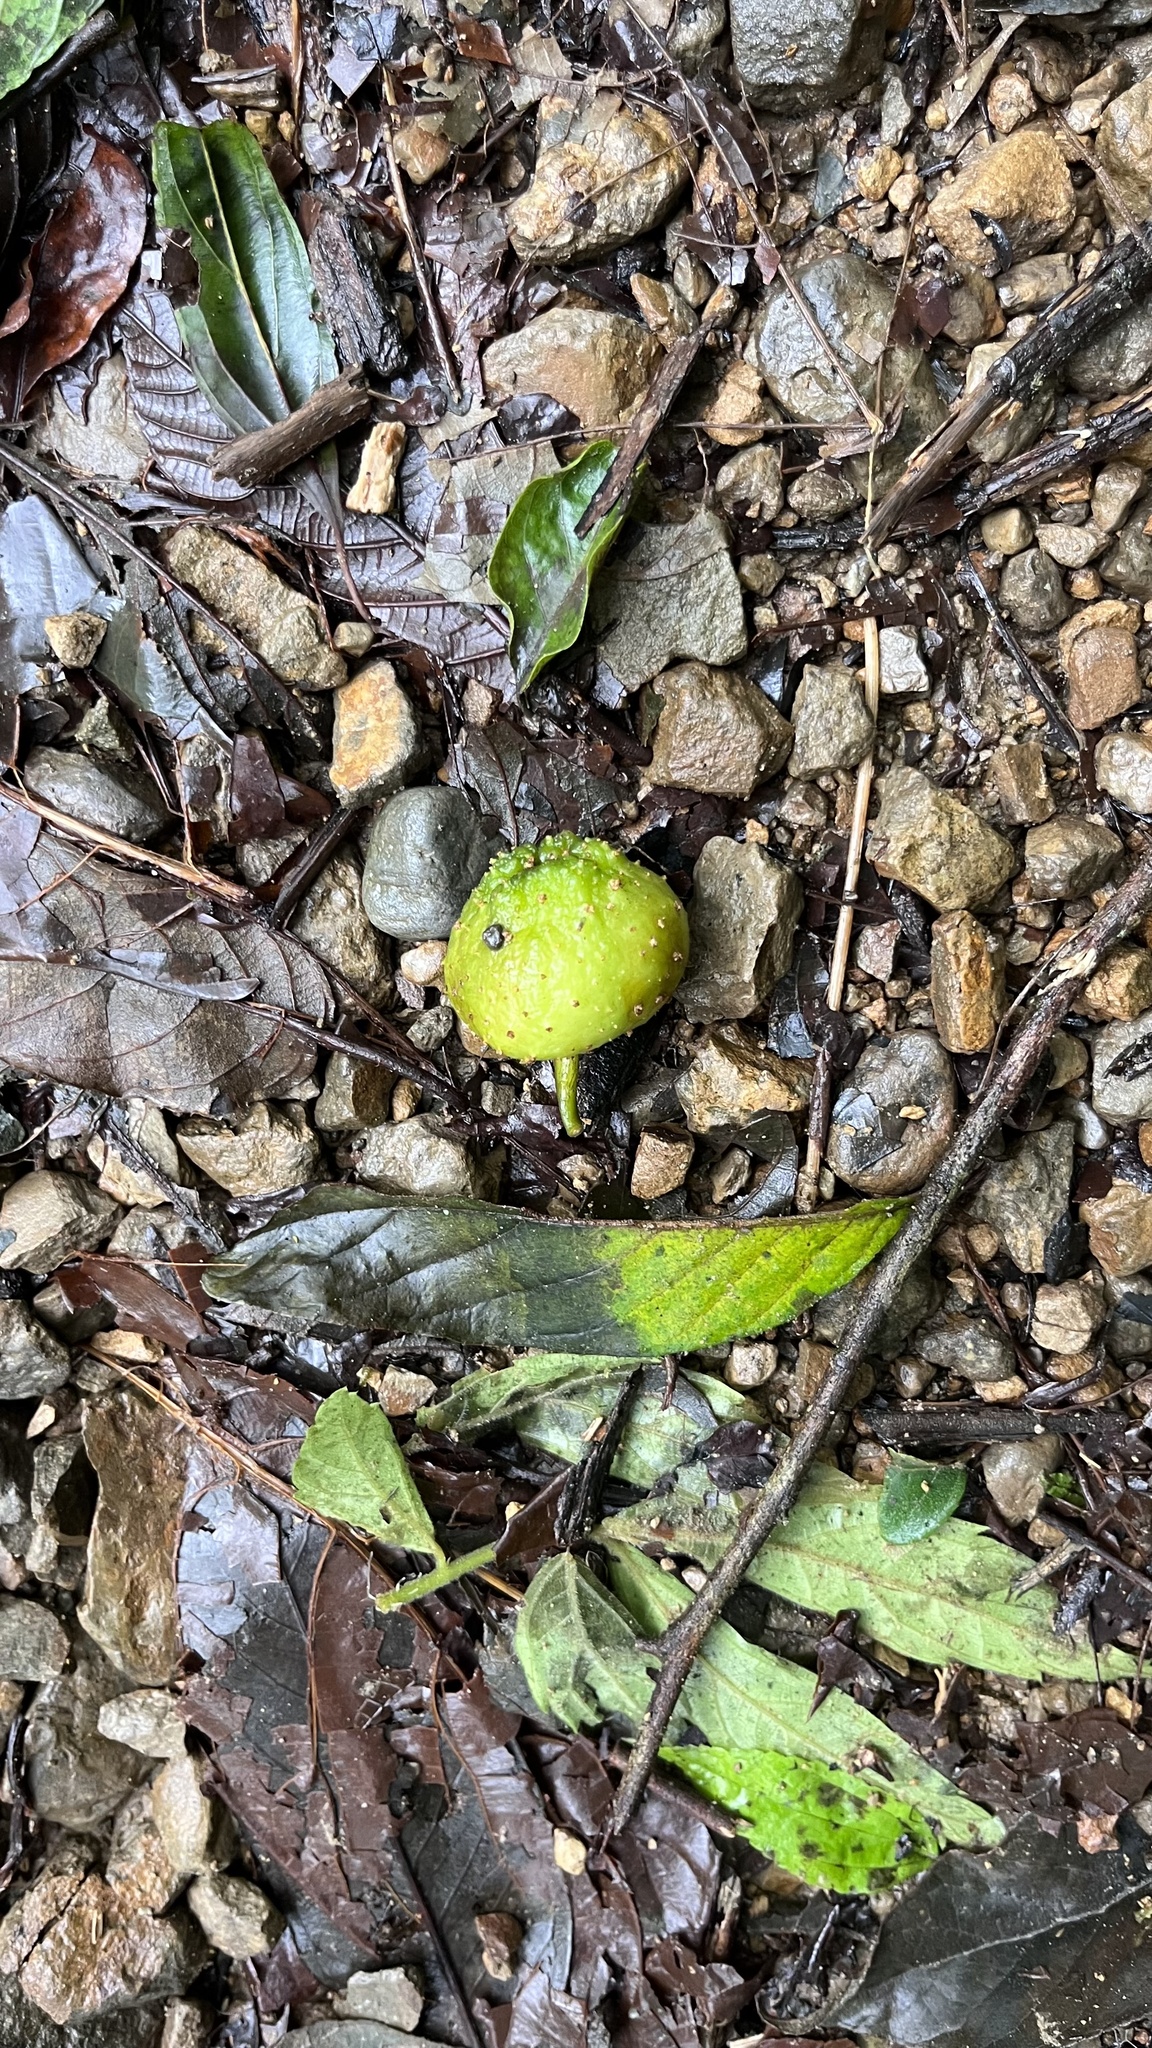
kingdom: Plantae
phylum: Tracheophyta
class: Magnoliopsida
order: Rosales
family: Moraceae
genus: Ficus
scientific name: Ficus benguetensis
